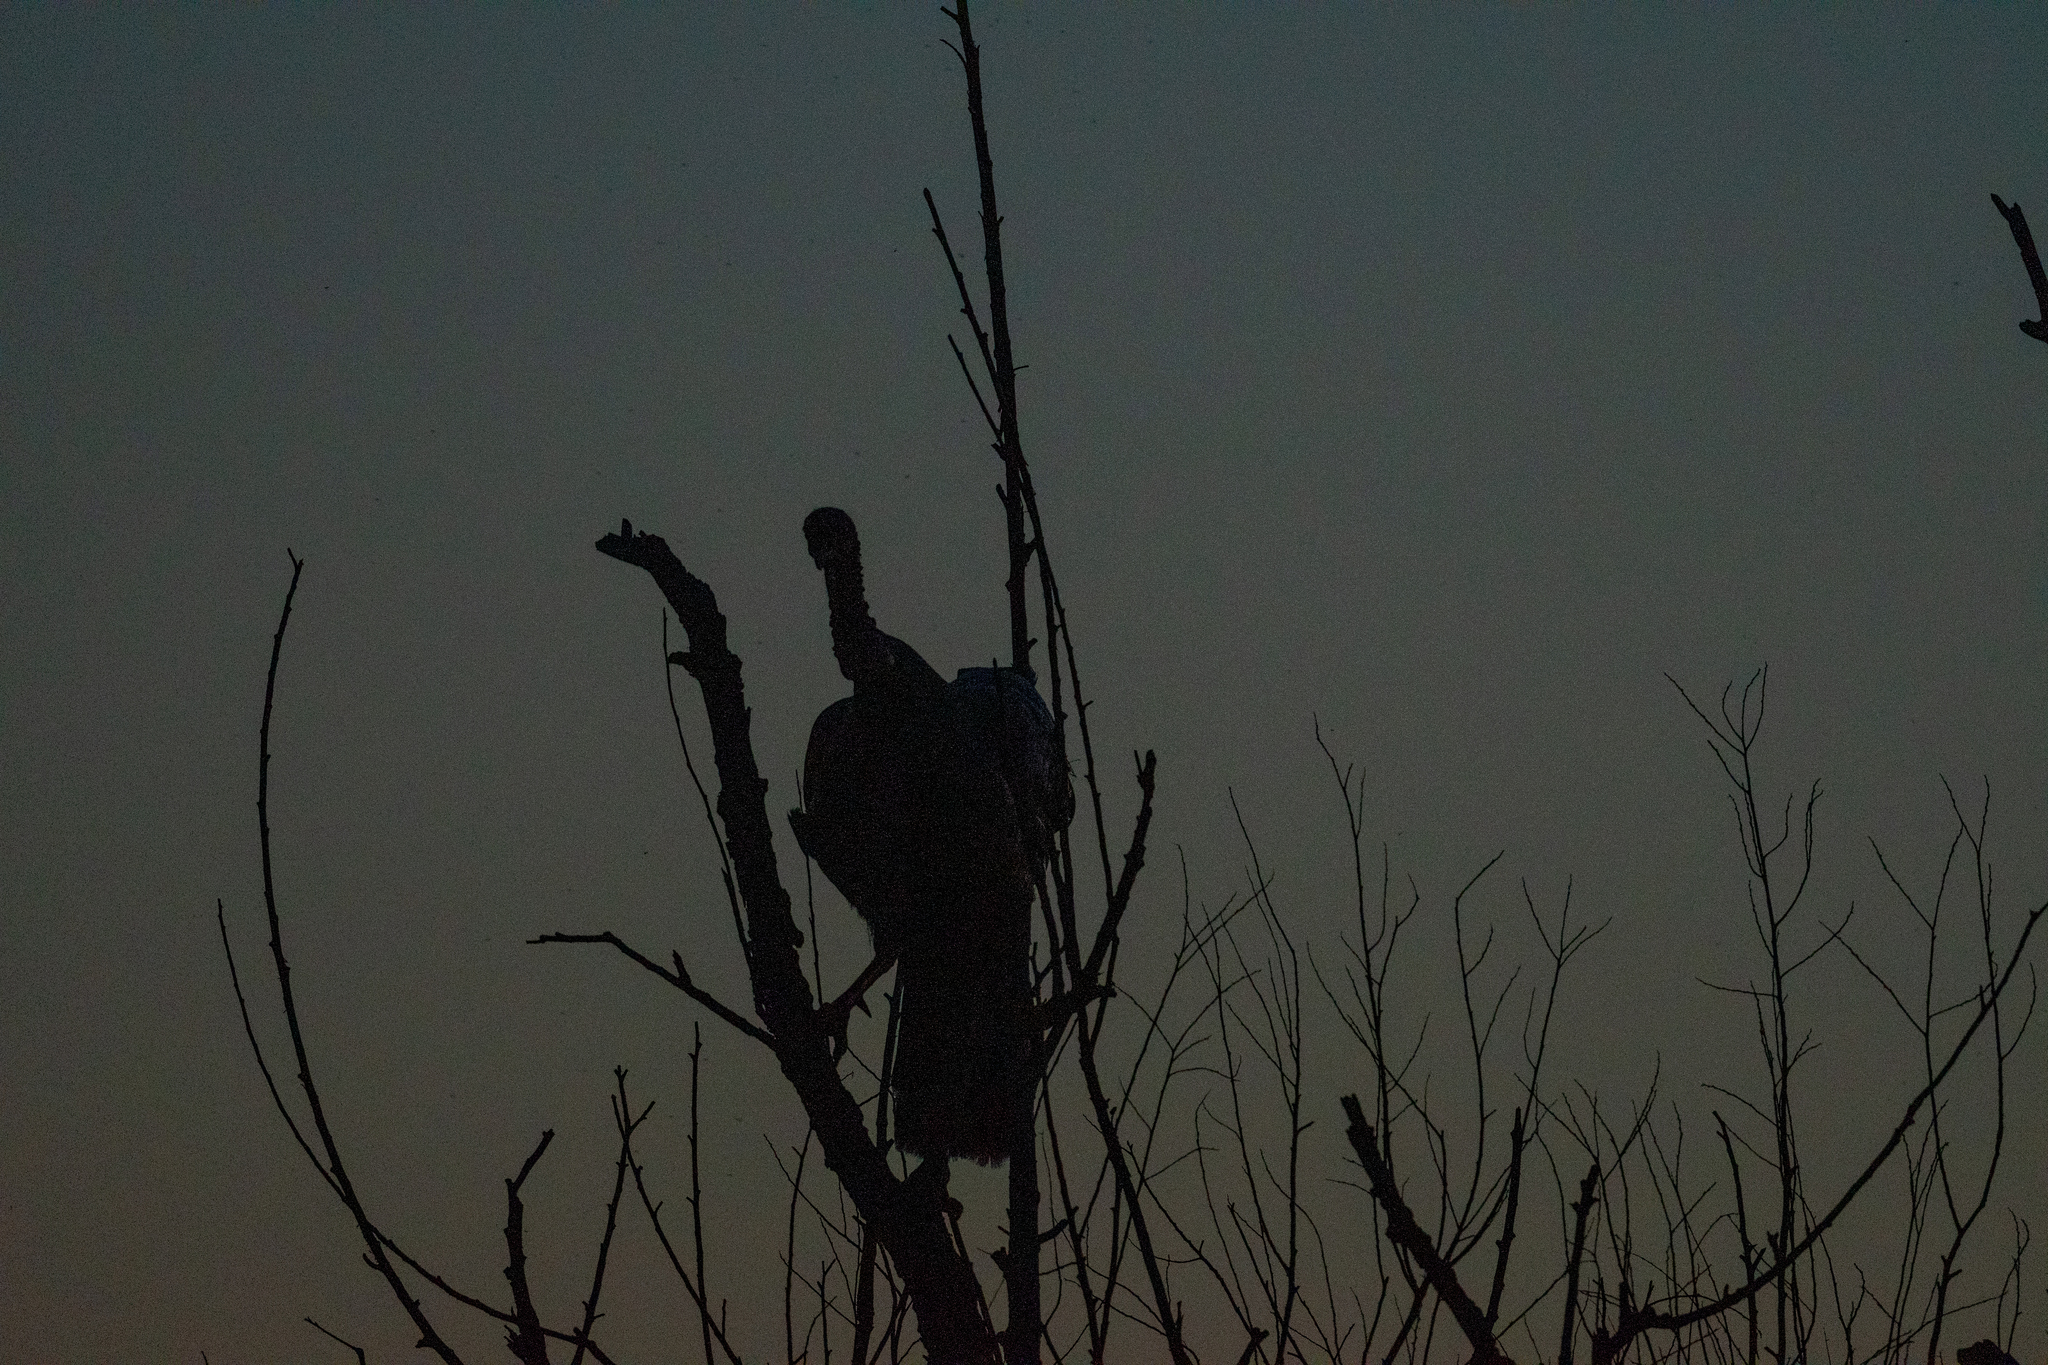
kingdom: Animalia
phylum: Chordata
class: Aves
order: Galliformes
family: Phasianidae
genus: Meleagris
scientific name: Meleagris gallopavo
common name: Wild turkey
